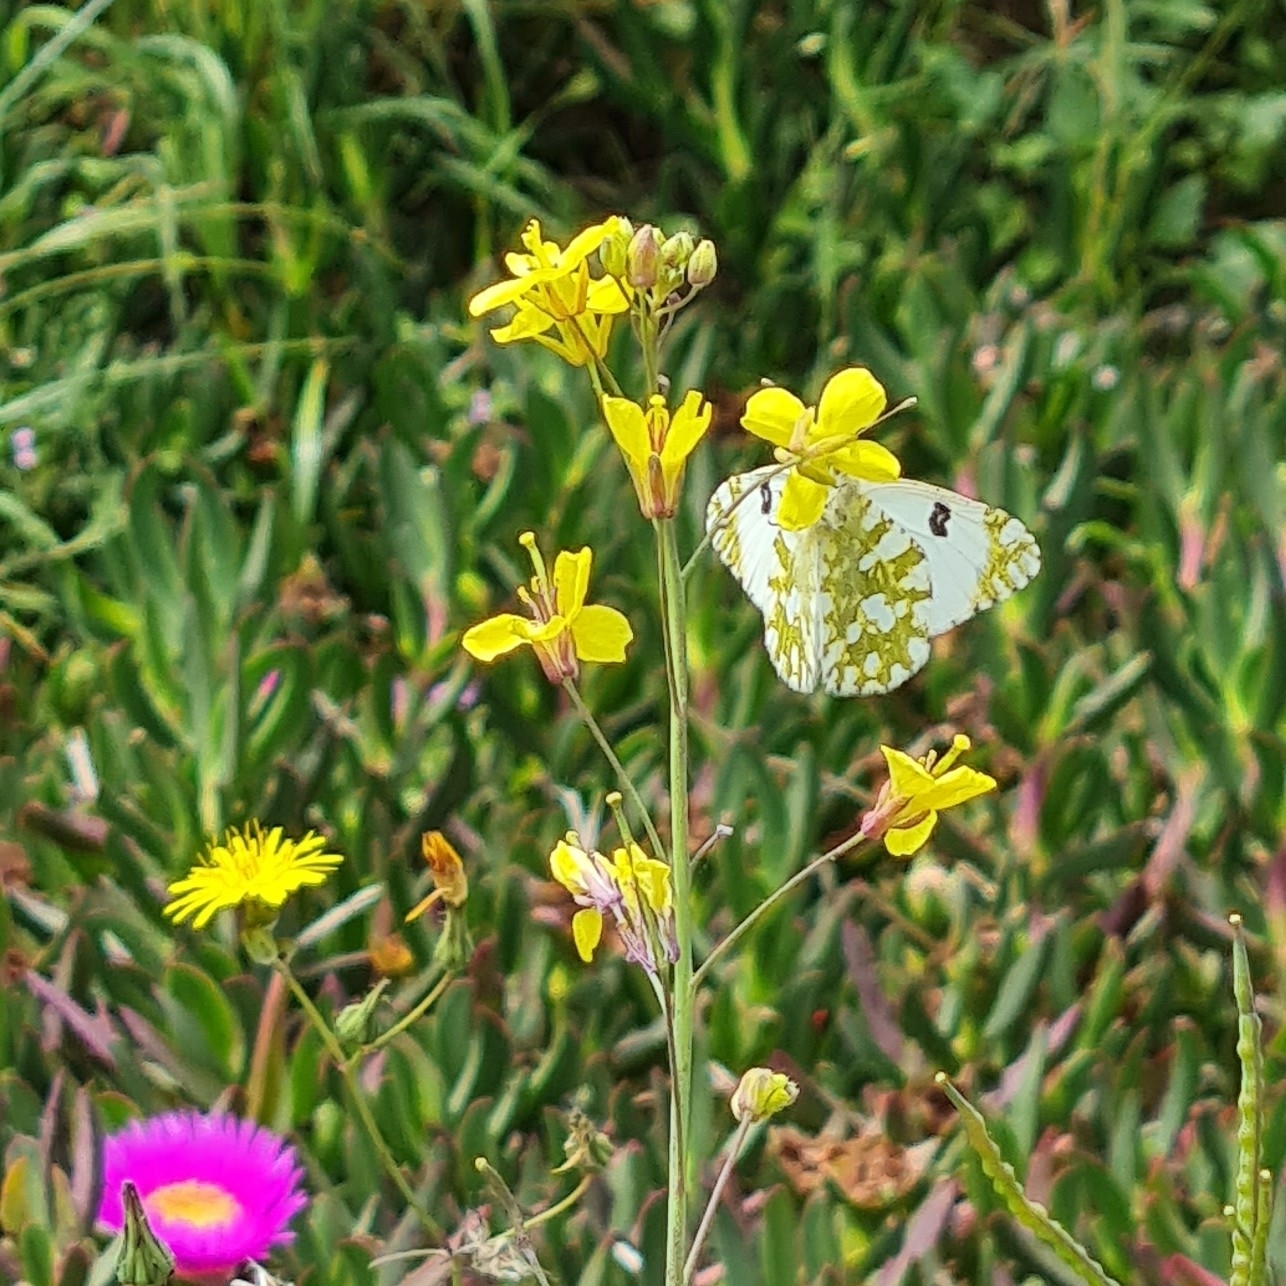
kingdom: Animalia
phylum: Arthropoda
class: Insecta
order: Lepidoptera
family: Pieridae
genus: Euchloe
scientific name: Euchloe crameri
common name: Western dappled white
